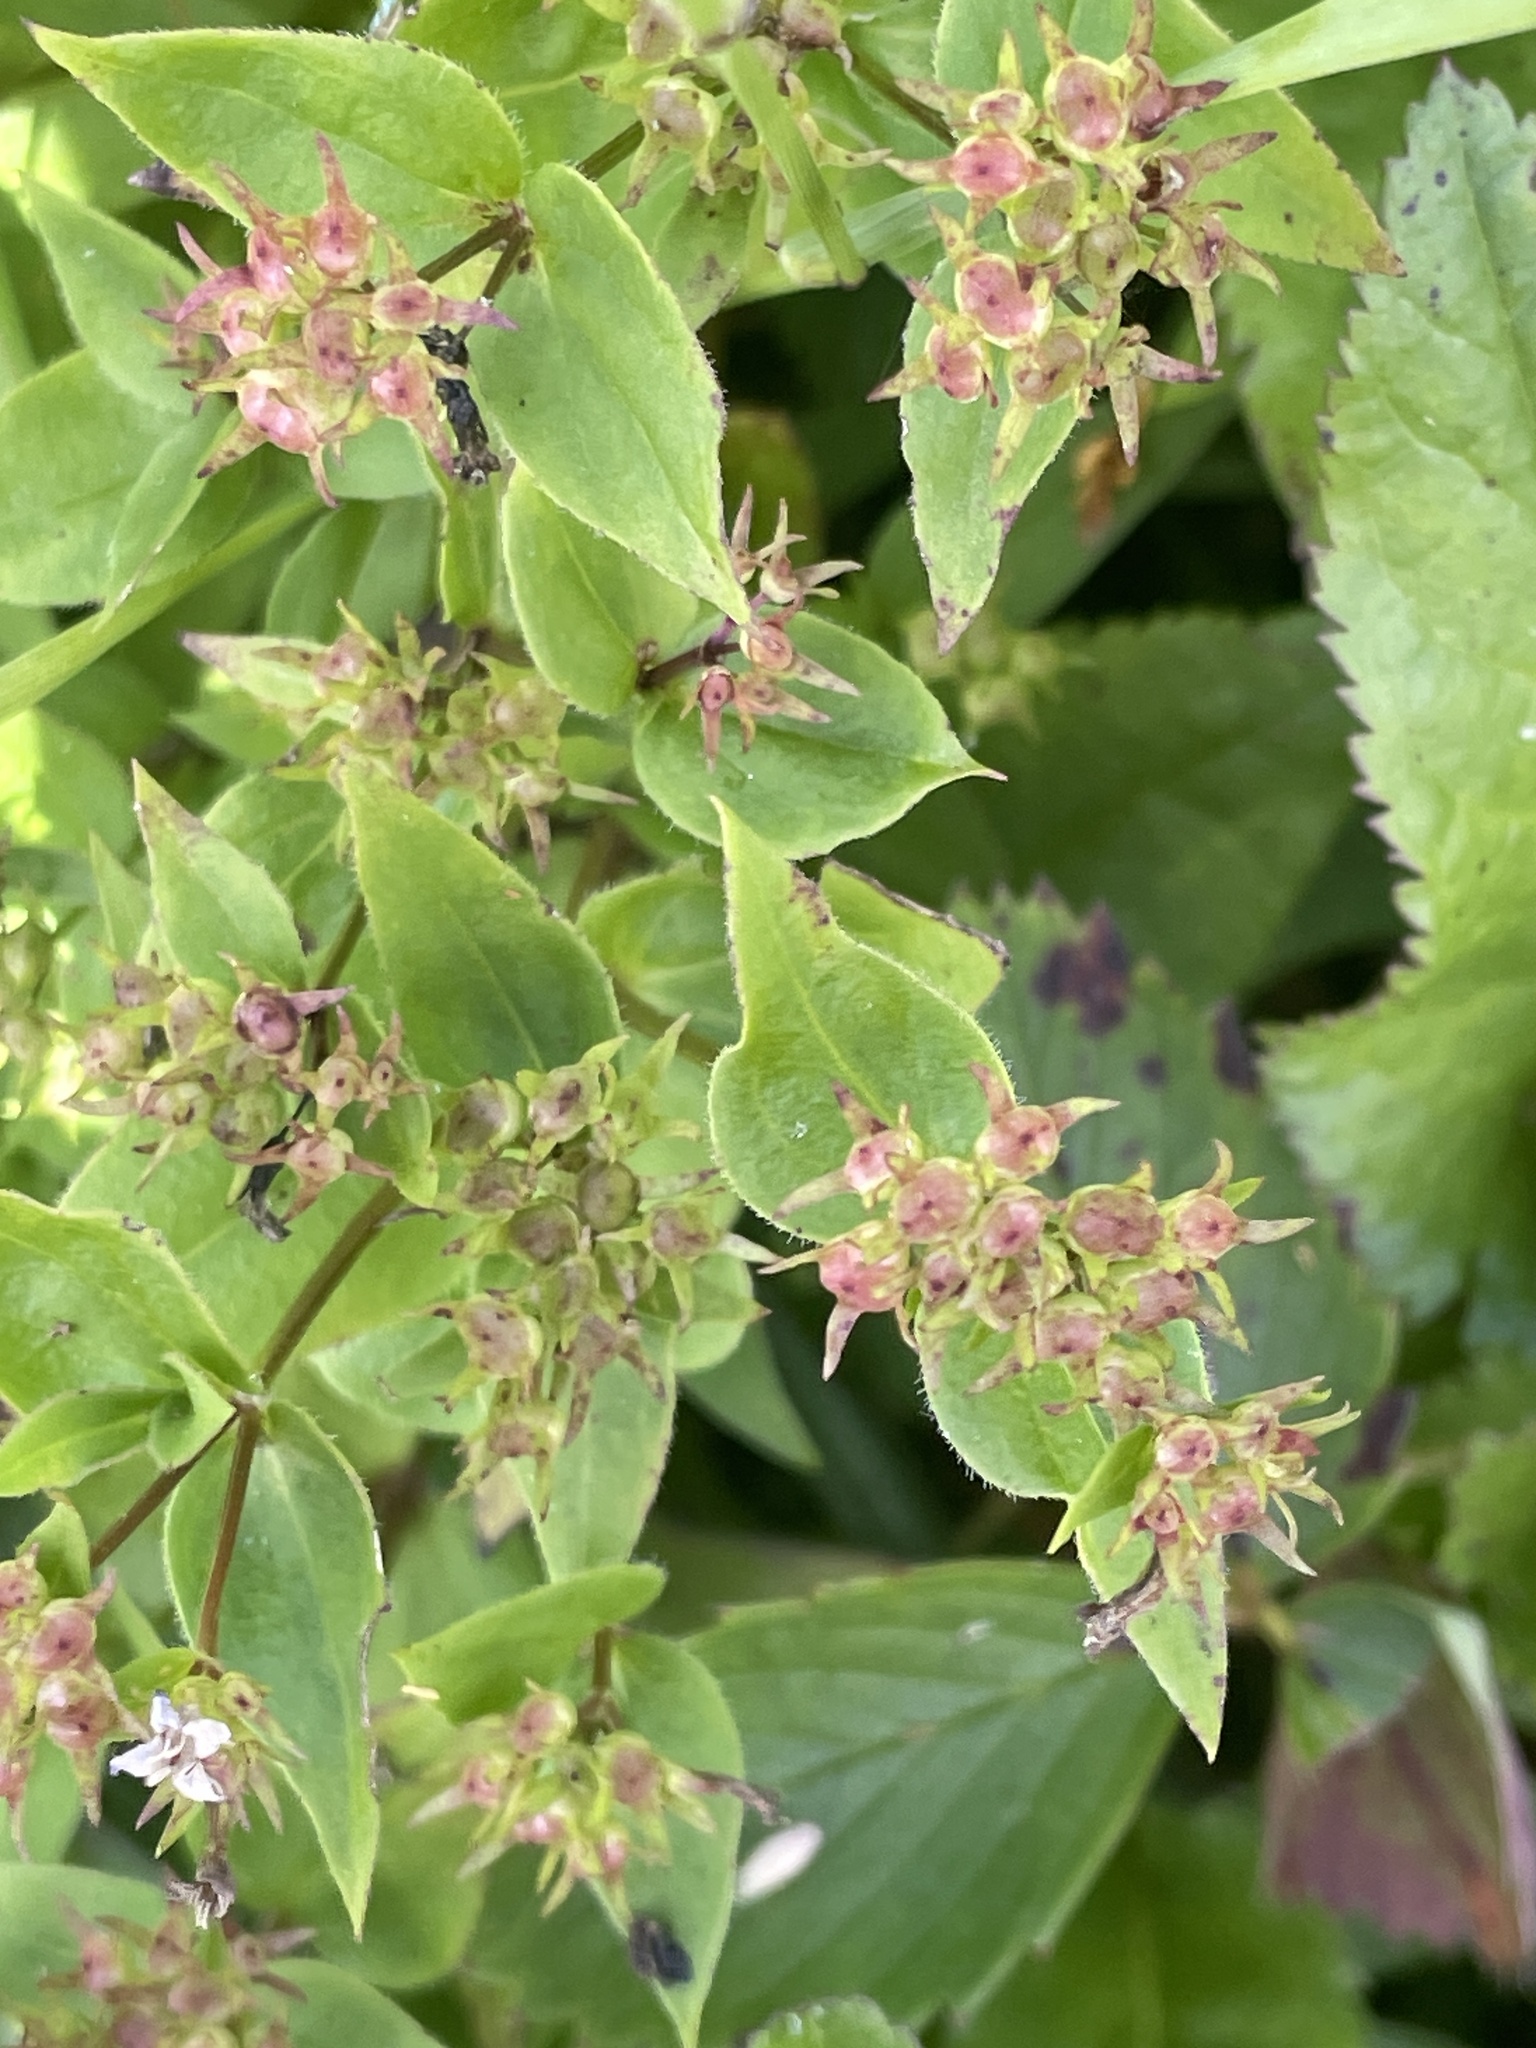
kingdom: Plantae
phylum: Tracheophyta
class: Magnoliopsida
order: Gentianales
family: Rubiaceae
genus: Houstonia
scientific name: Houstonia purpurea
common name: Summer bluet
